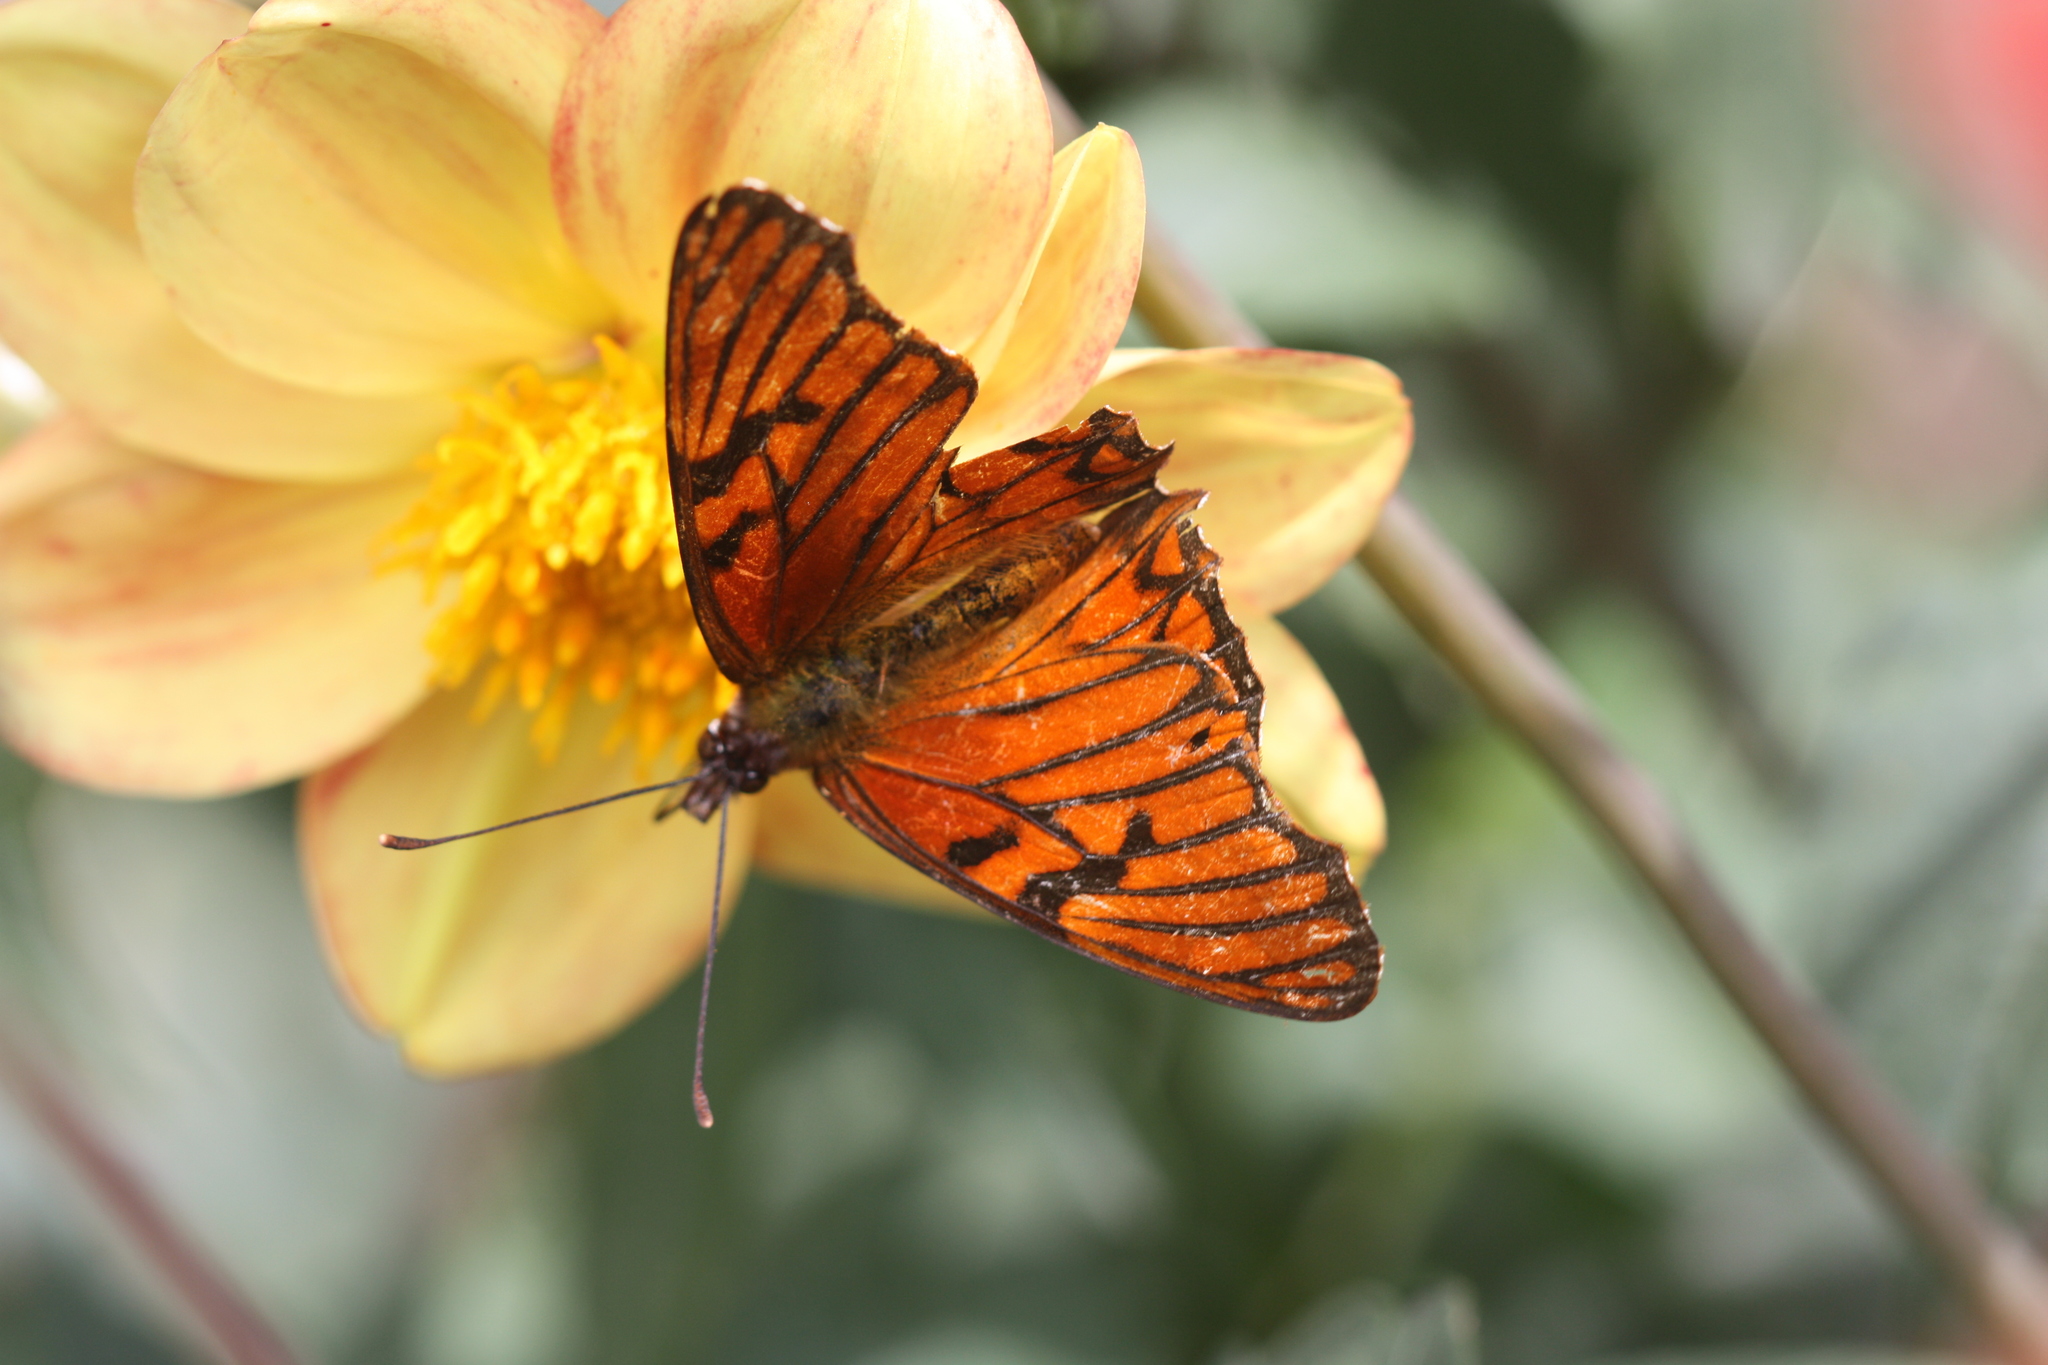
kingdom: Animalia
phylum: Arthropoda
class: Insecta
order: Lepidoptera
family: Nymphalidae
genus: Dione
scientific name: Dione glycera
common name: Andean silverspot
